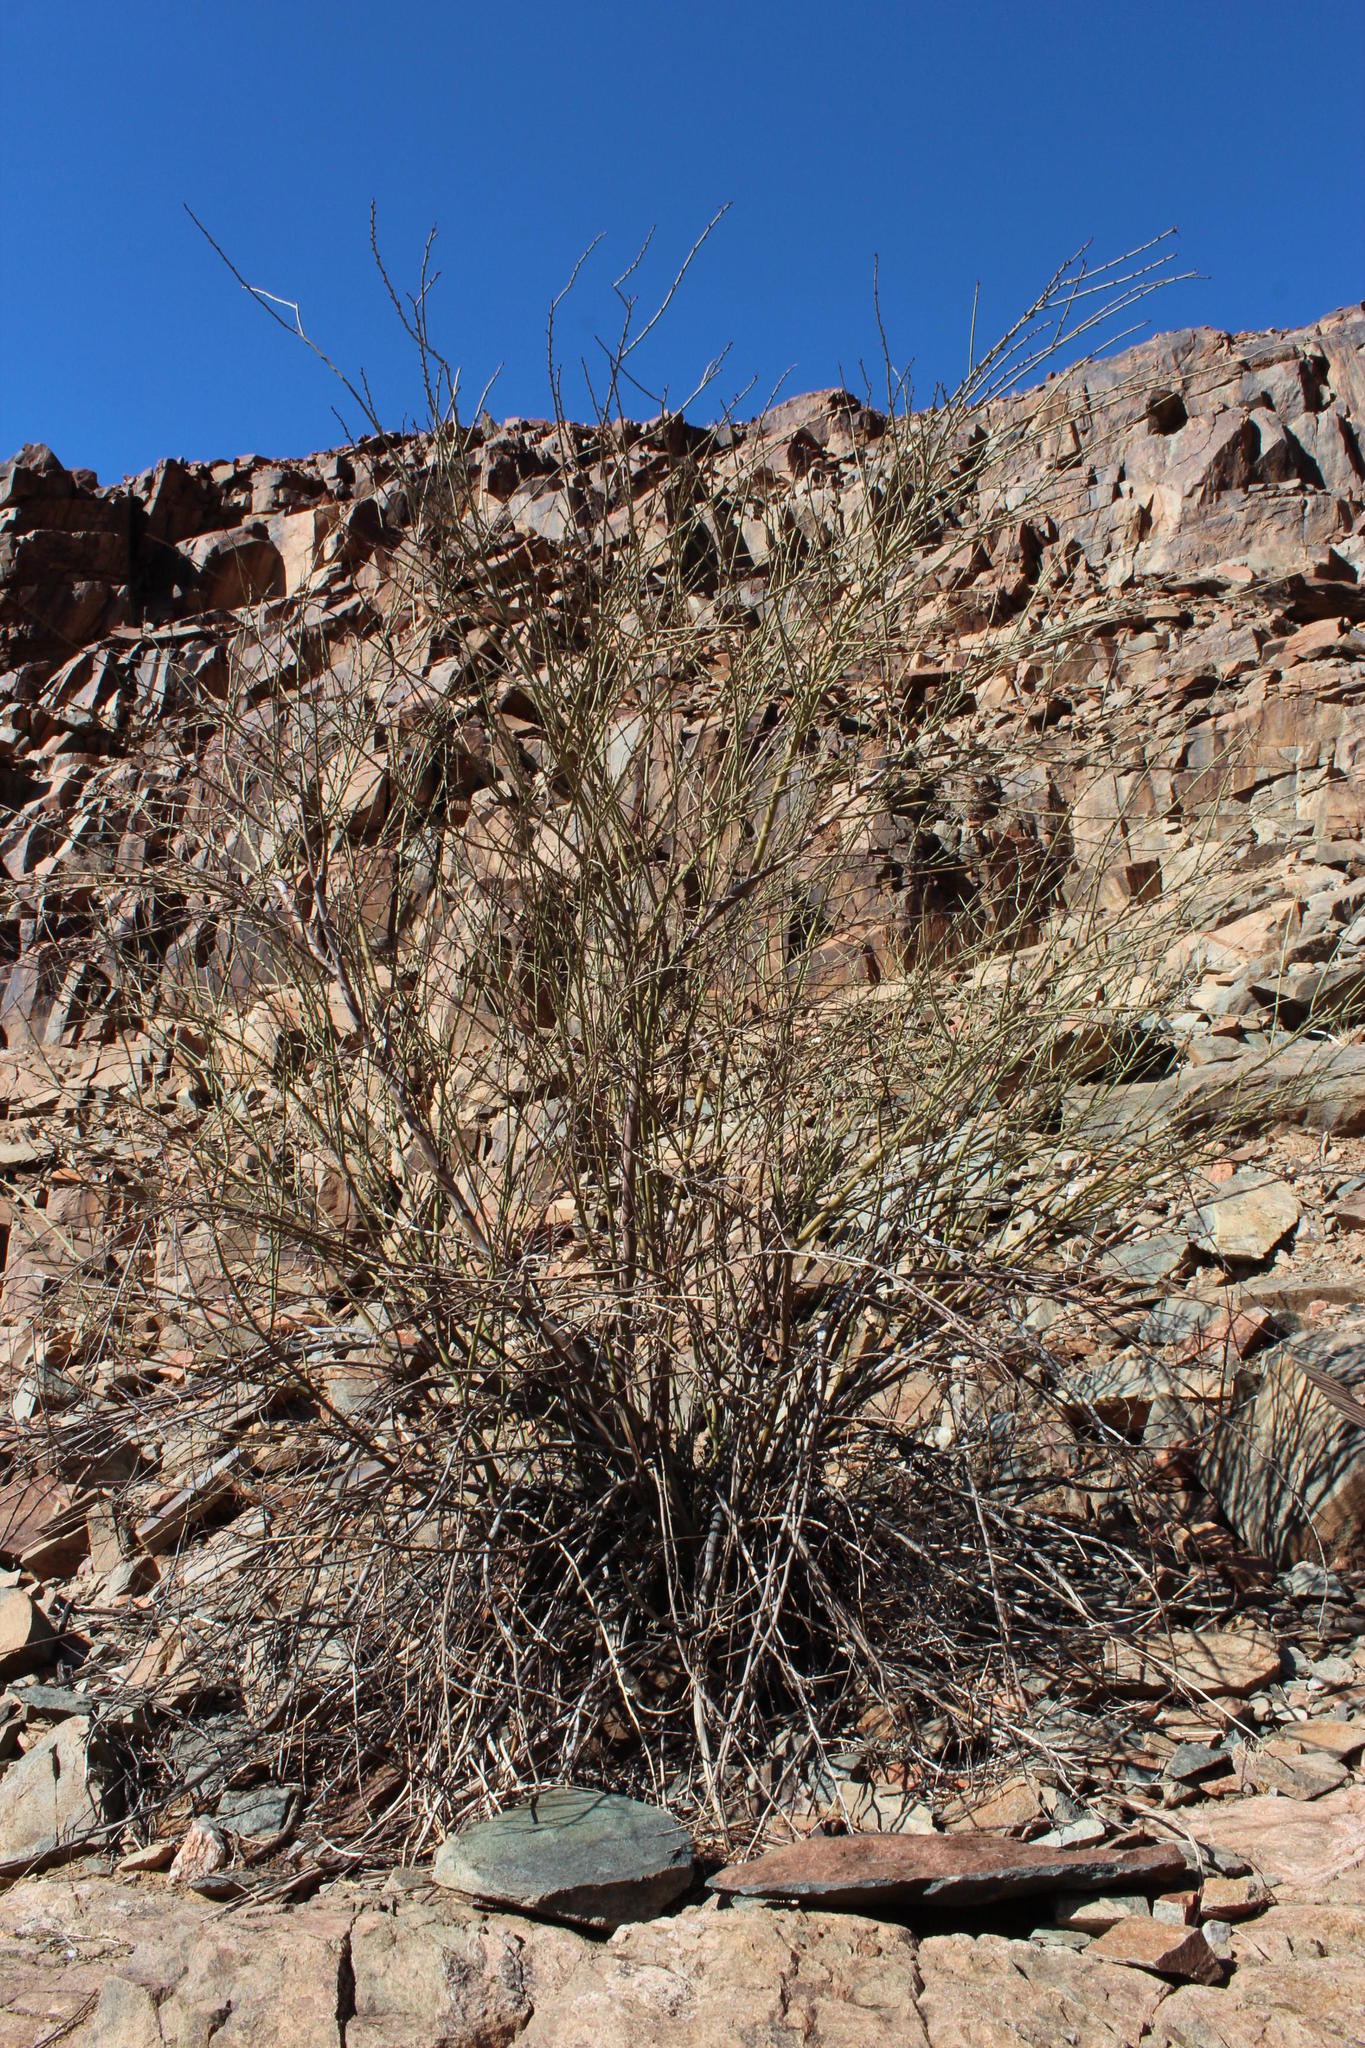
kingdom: Plantae
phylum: Tracheophyta
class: Magnoliopsida
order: Fabales
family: Fabaceae
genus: Adenolobus
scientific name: Adenolobus garipensis
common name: Butterfly-leaf
